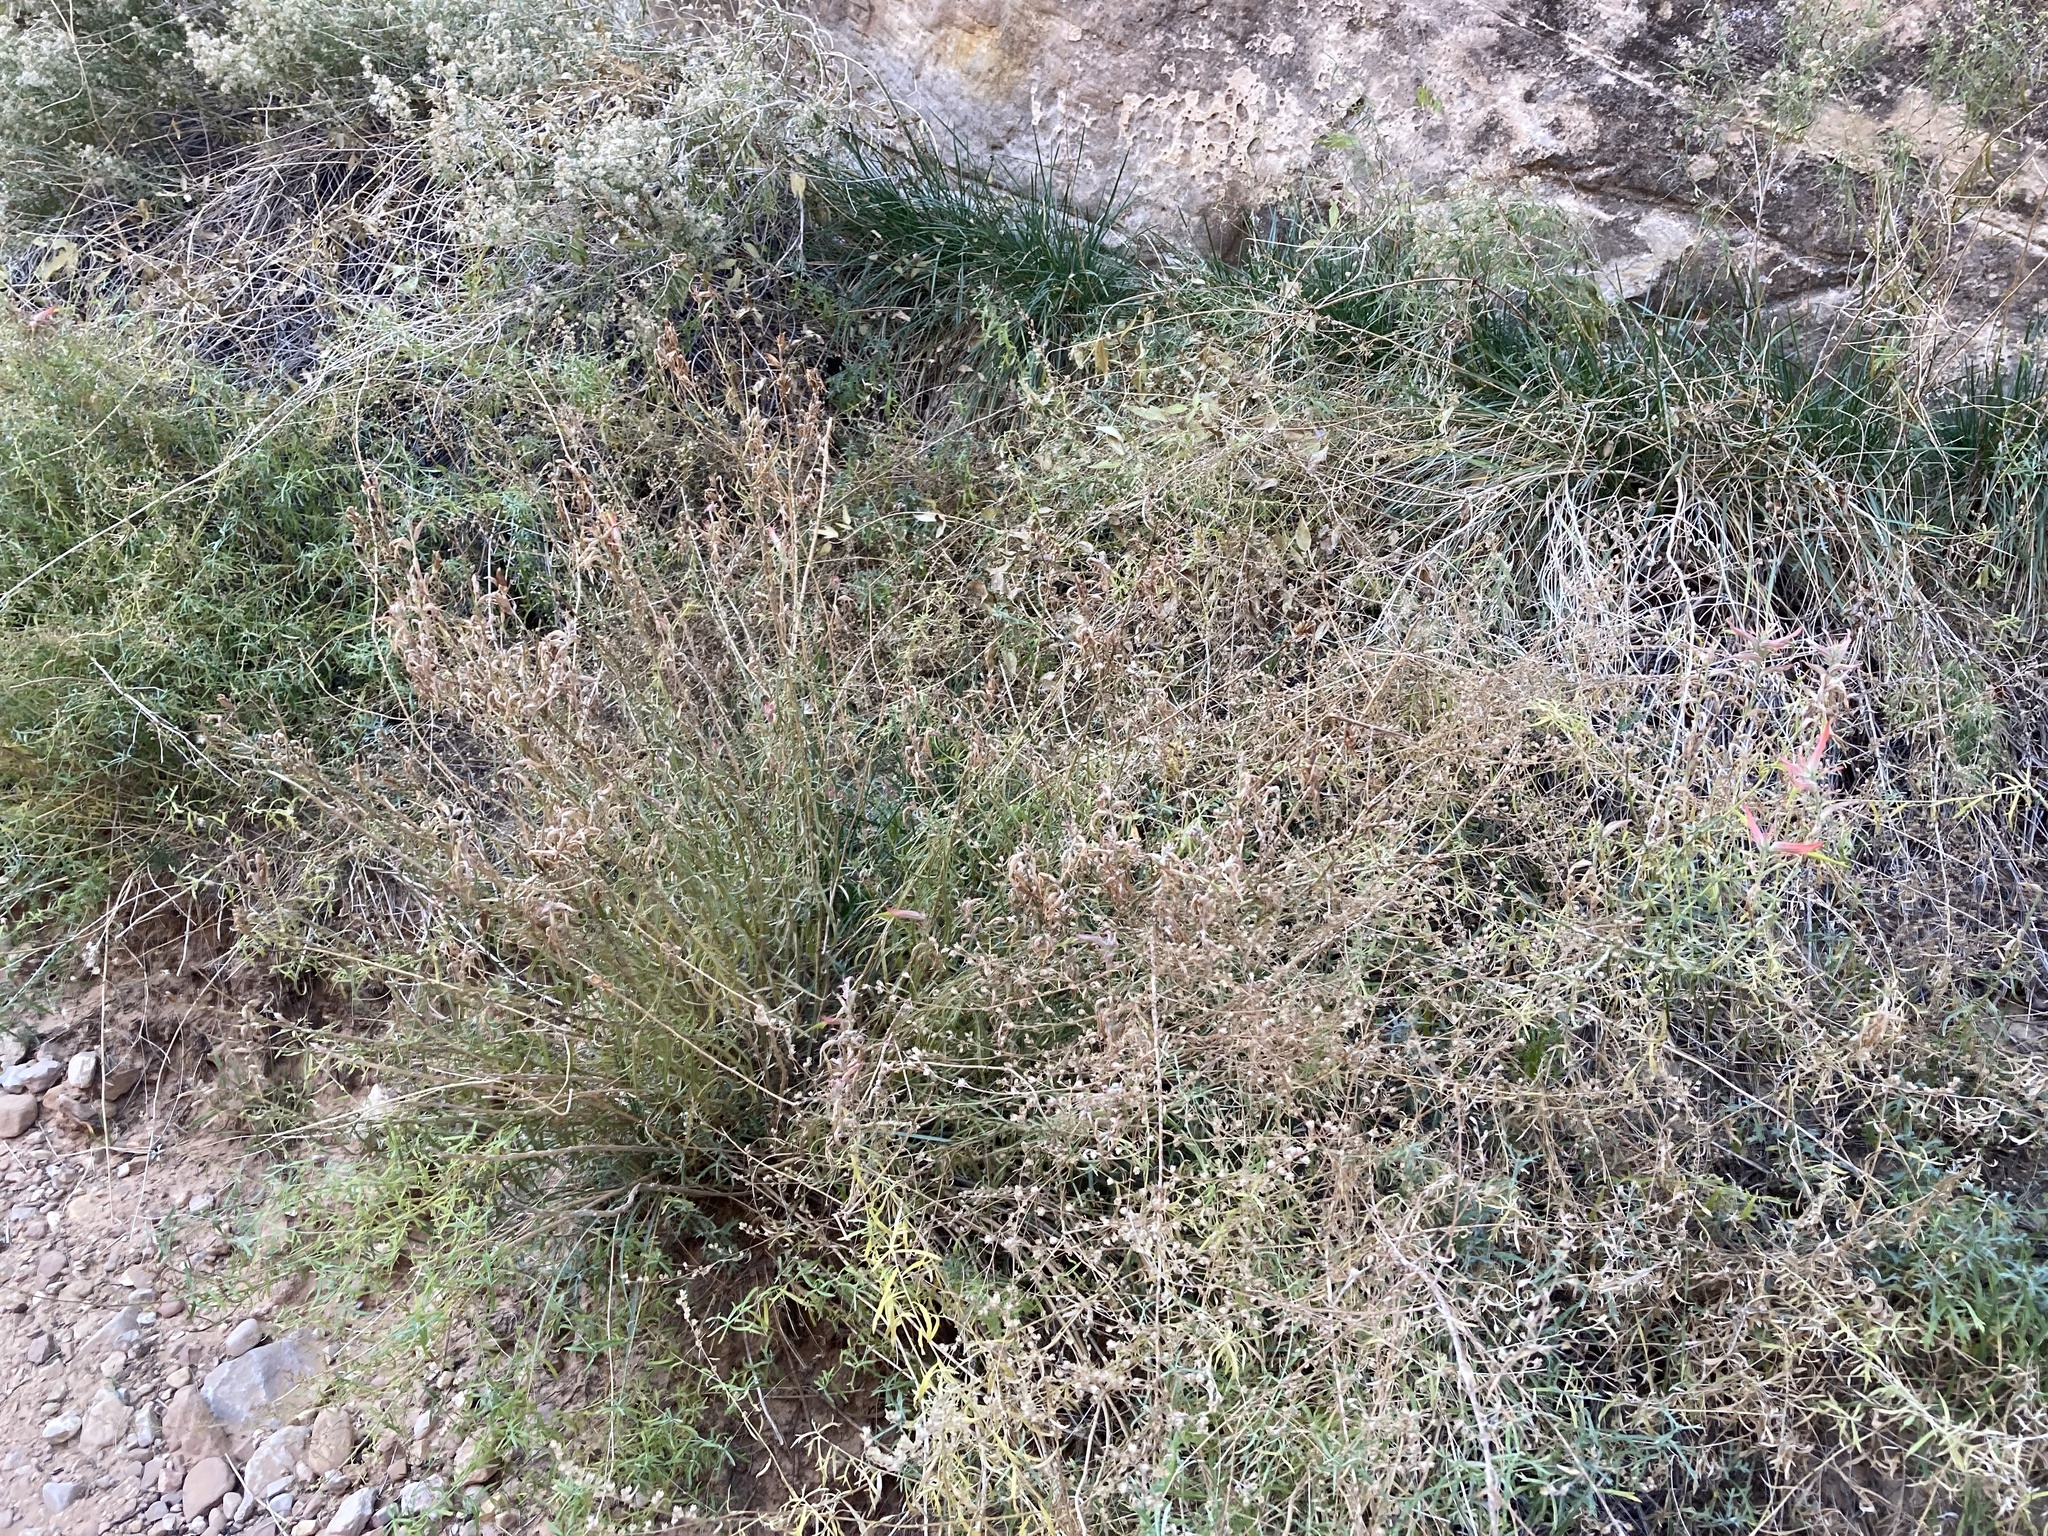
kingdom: Plantae
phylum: Tracheophyta
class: Magnoliopsida
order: Lamiales
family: Orobanchaceae
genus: Castilleja
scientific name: Castilleja linariifolia
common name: Wyoming paintbrush
